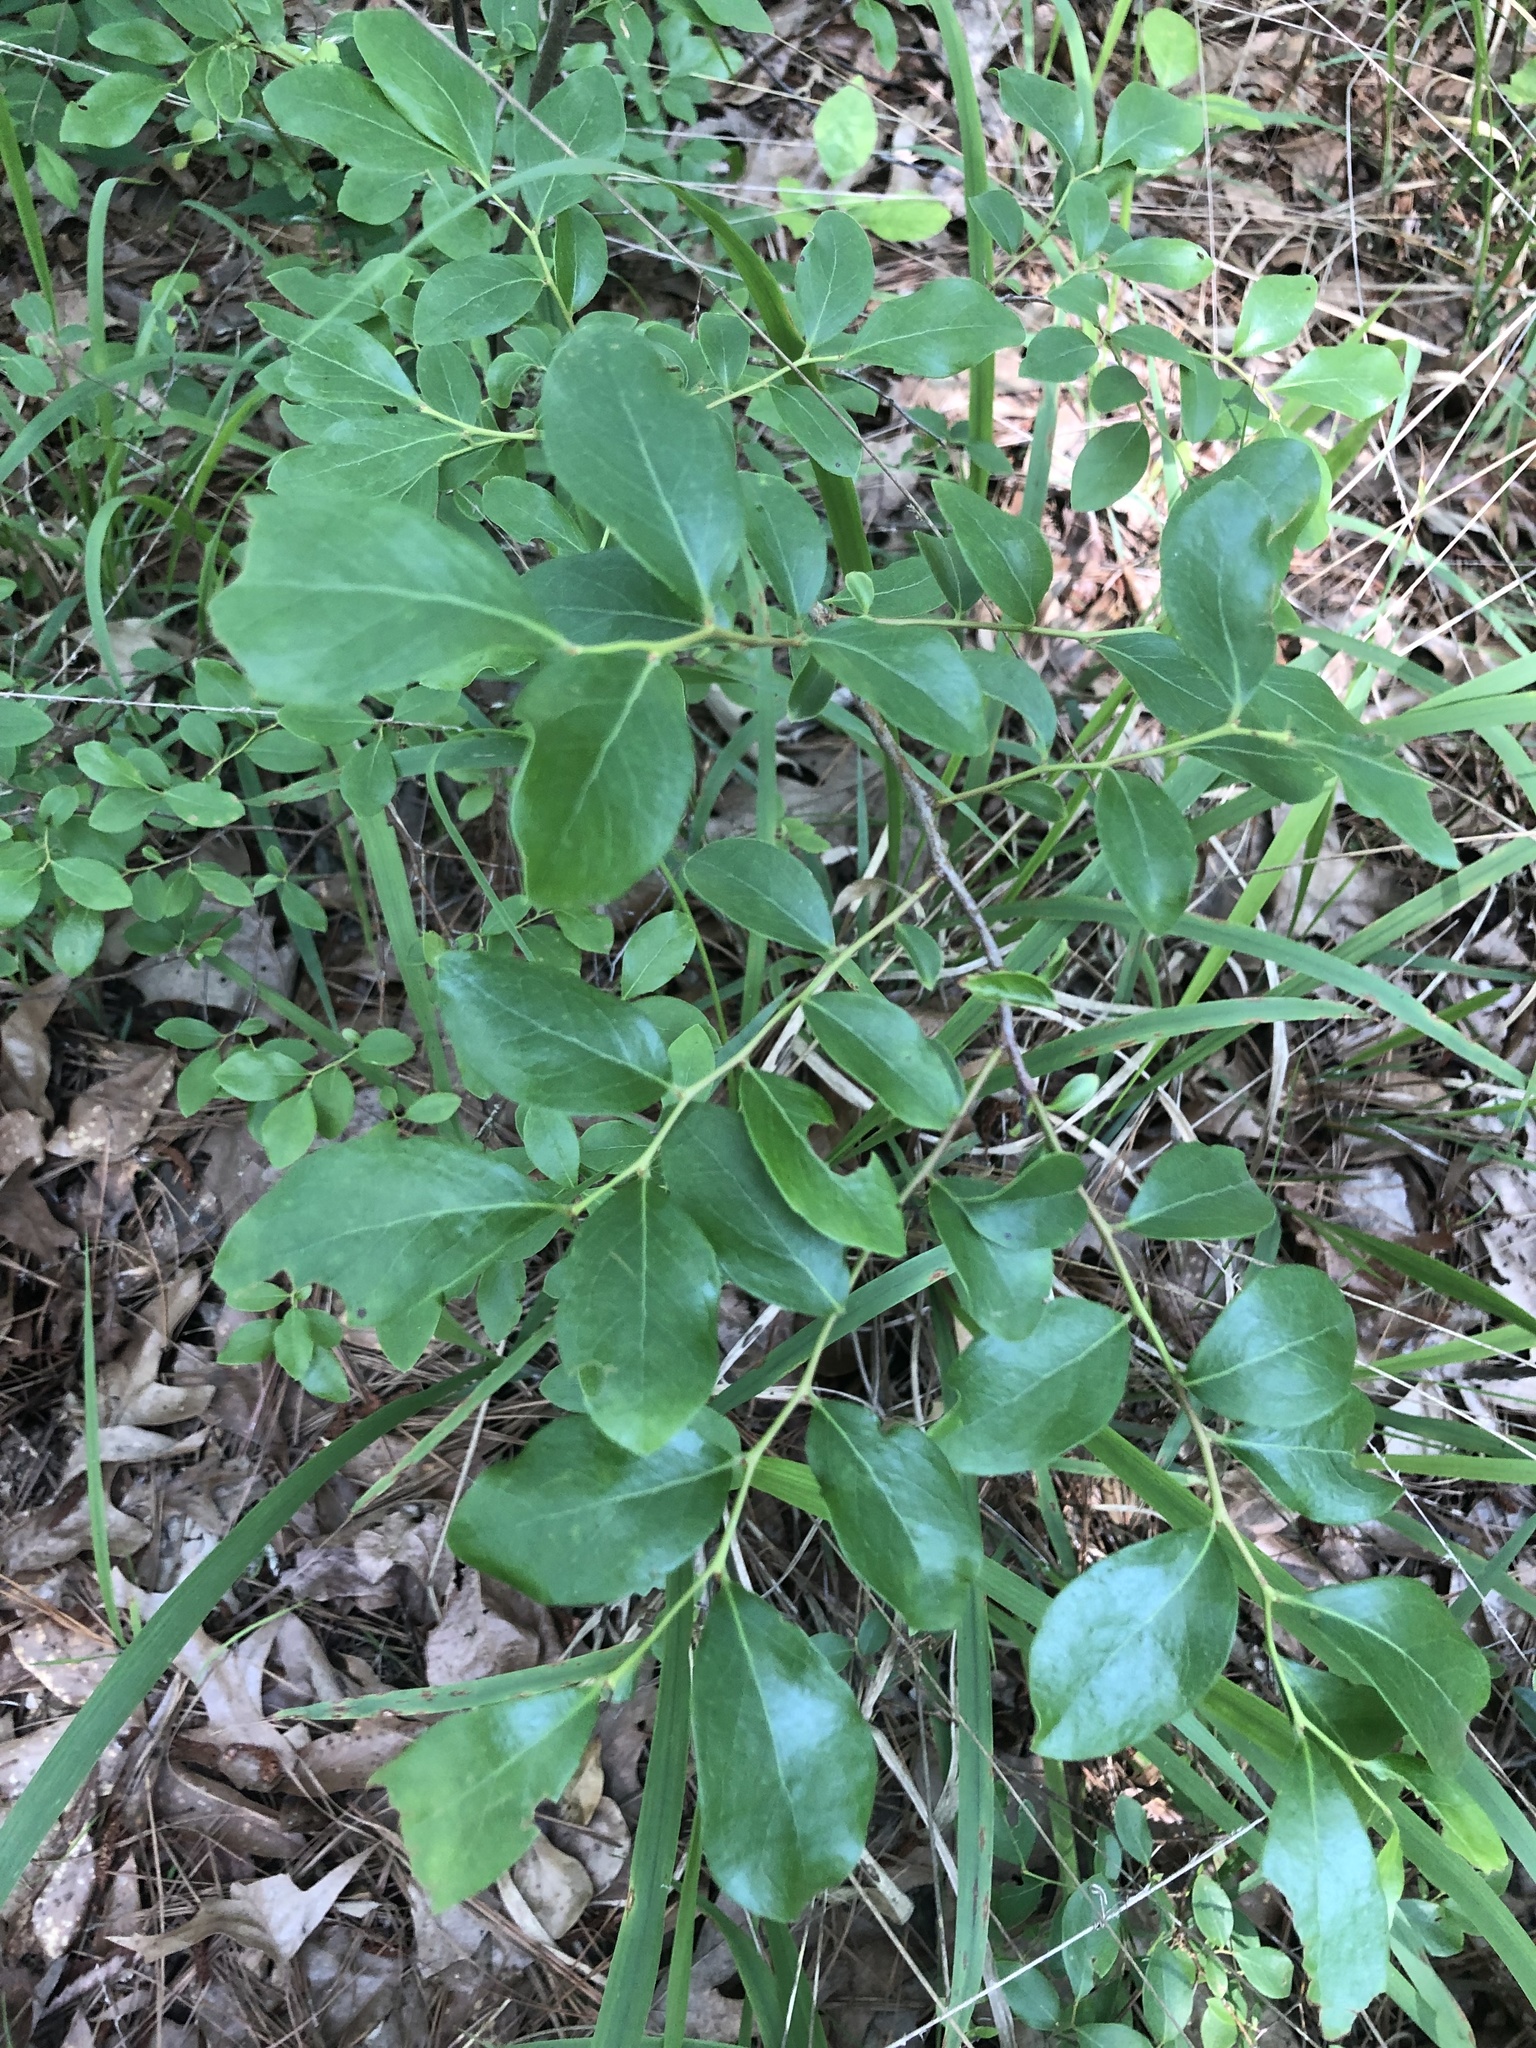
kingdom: Plantae
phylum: Tracheophyta
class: Magnoliopsida
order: Ericales
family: Ericaceae
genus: Vaccinium
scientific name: Vaccinium arboreum
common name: Farkleberry
